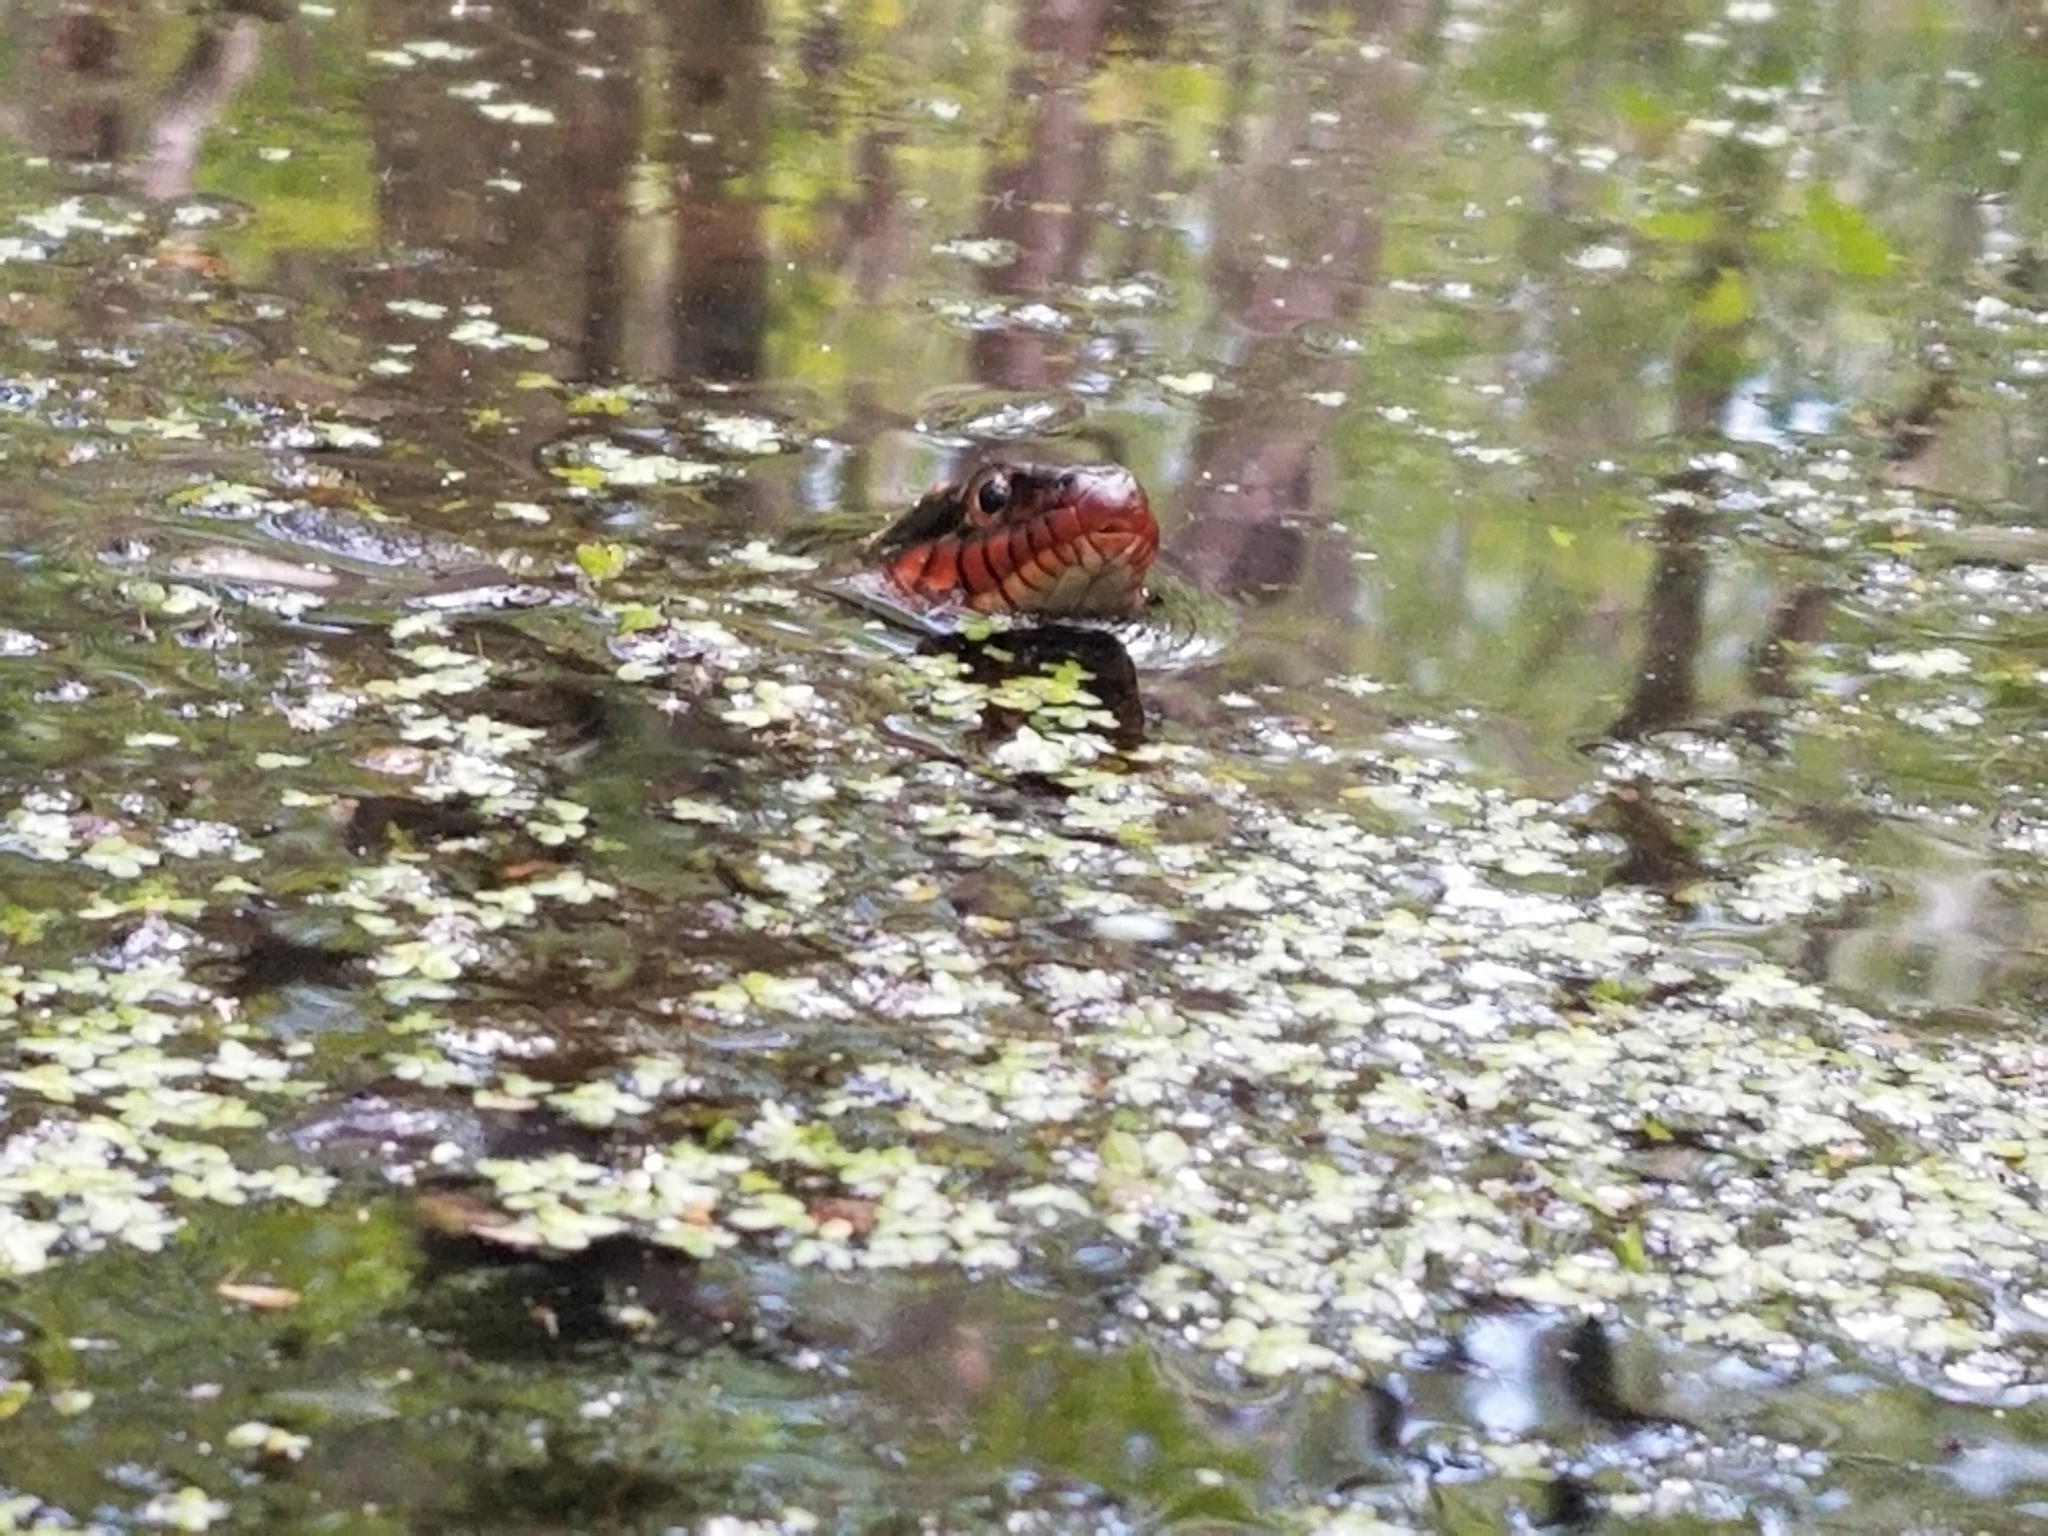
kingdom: Animalia
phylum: Chordata
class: Squamata
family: Colubridae
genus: Nerodia
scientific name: Nerodia erythrogaster
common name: Plainbelly water snake
